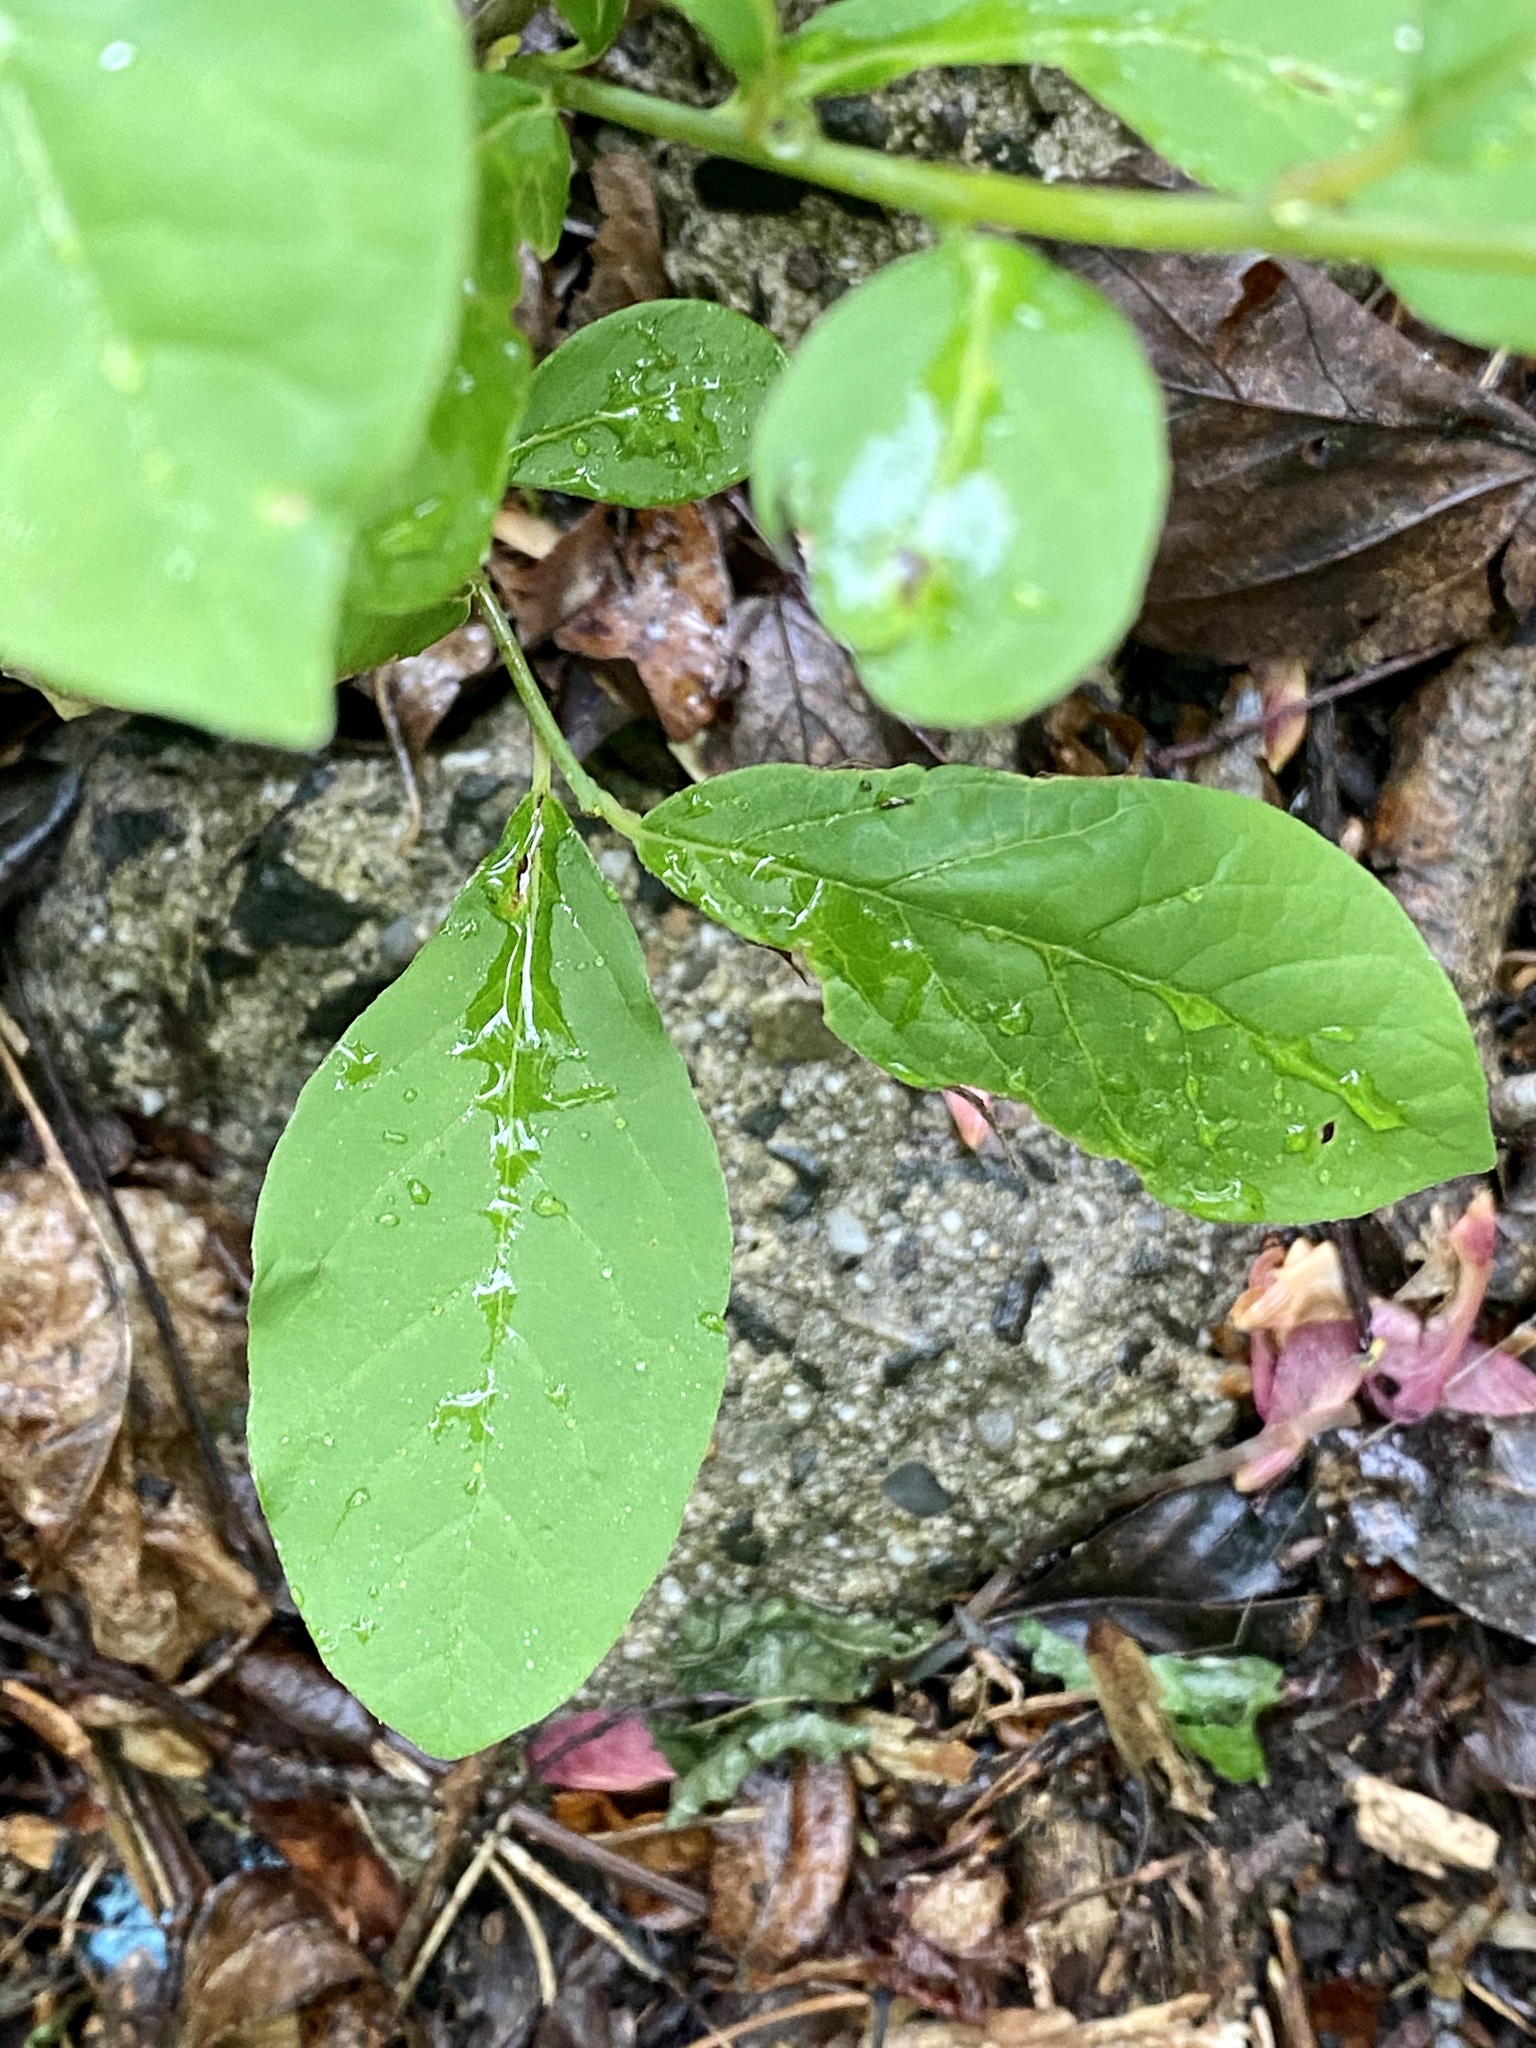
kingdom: Plantae
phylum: Tracheophyta
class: Magnoliopsida
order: Laurales
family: Lauraceae
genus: Lindera
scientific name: Lindera benzoin
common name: Spicebush
